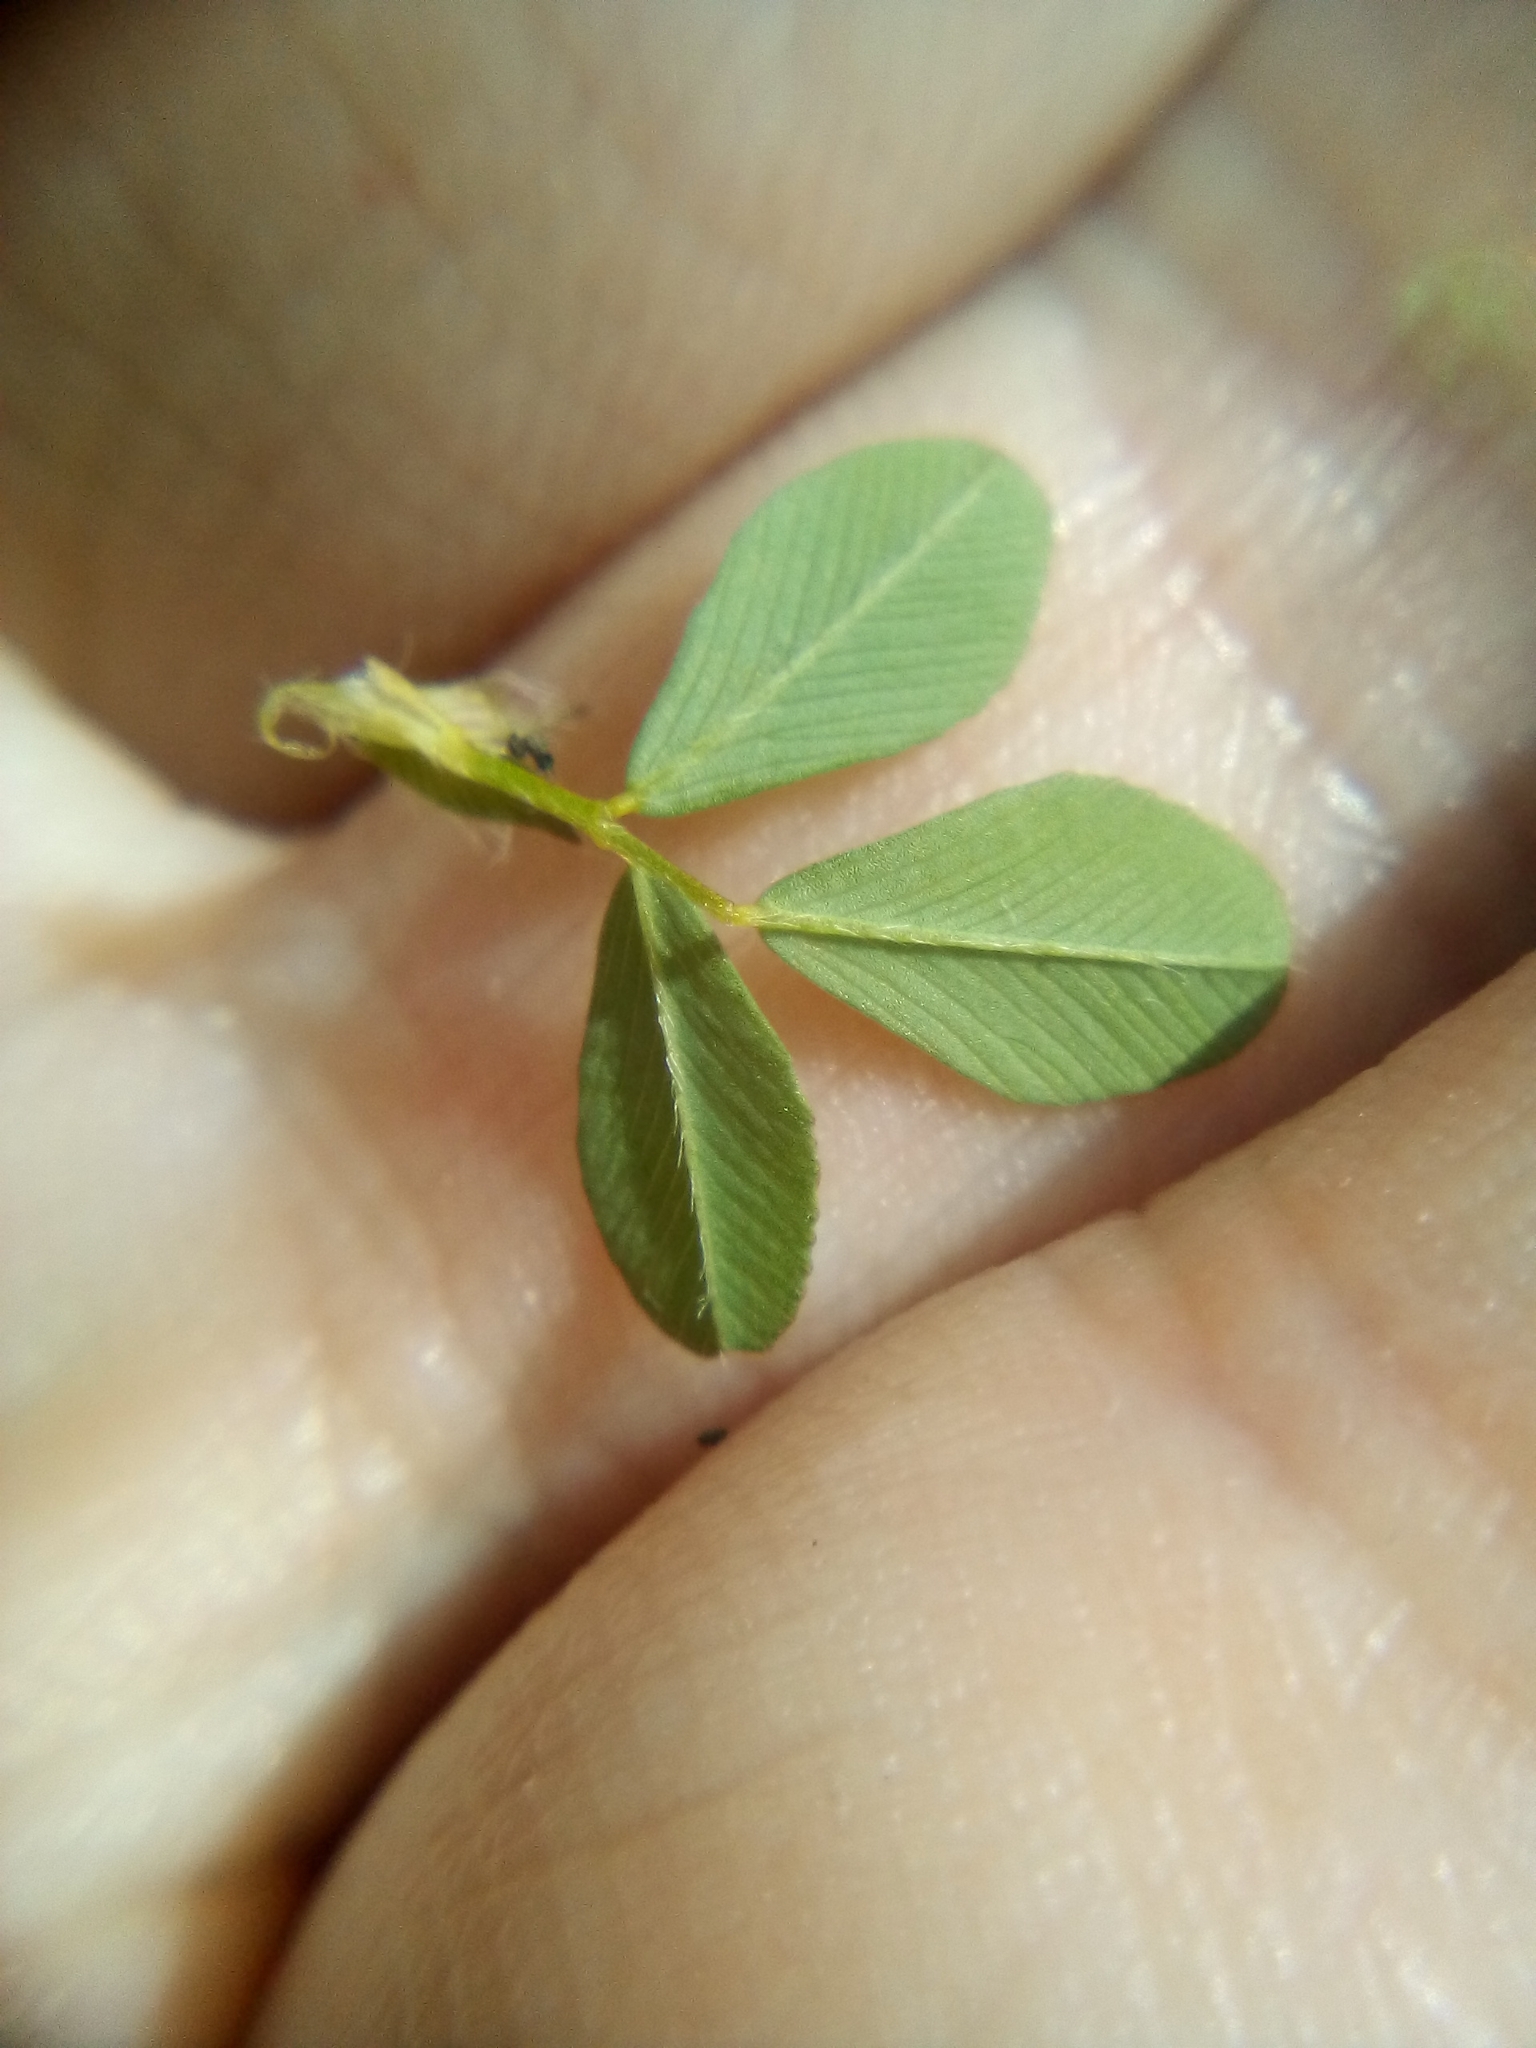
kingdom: Plantae
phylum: Tracheophyta
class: Magnoliopsida
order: Fabales
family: Fabaceae
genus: Trifolium
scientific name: Trifolium campestre
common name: Field clover
